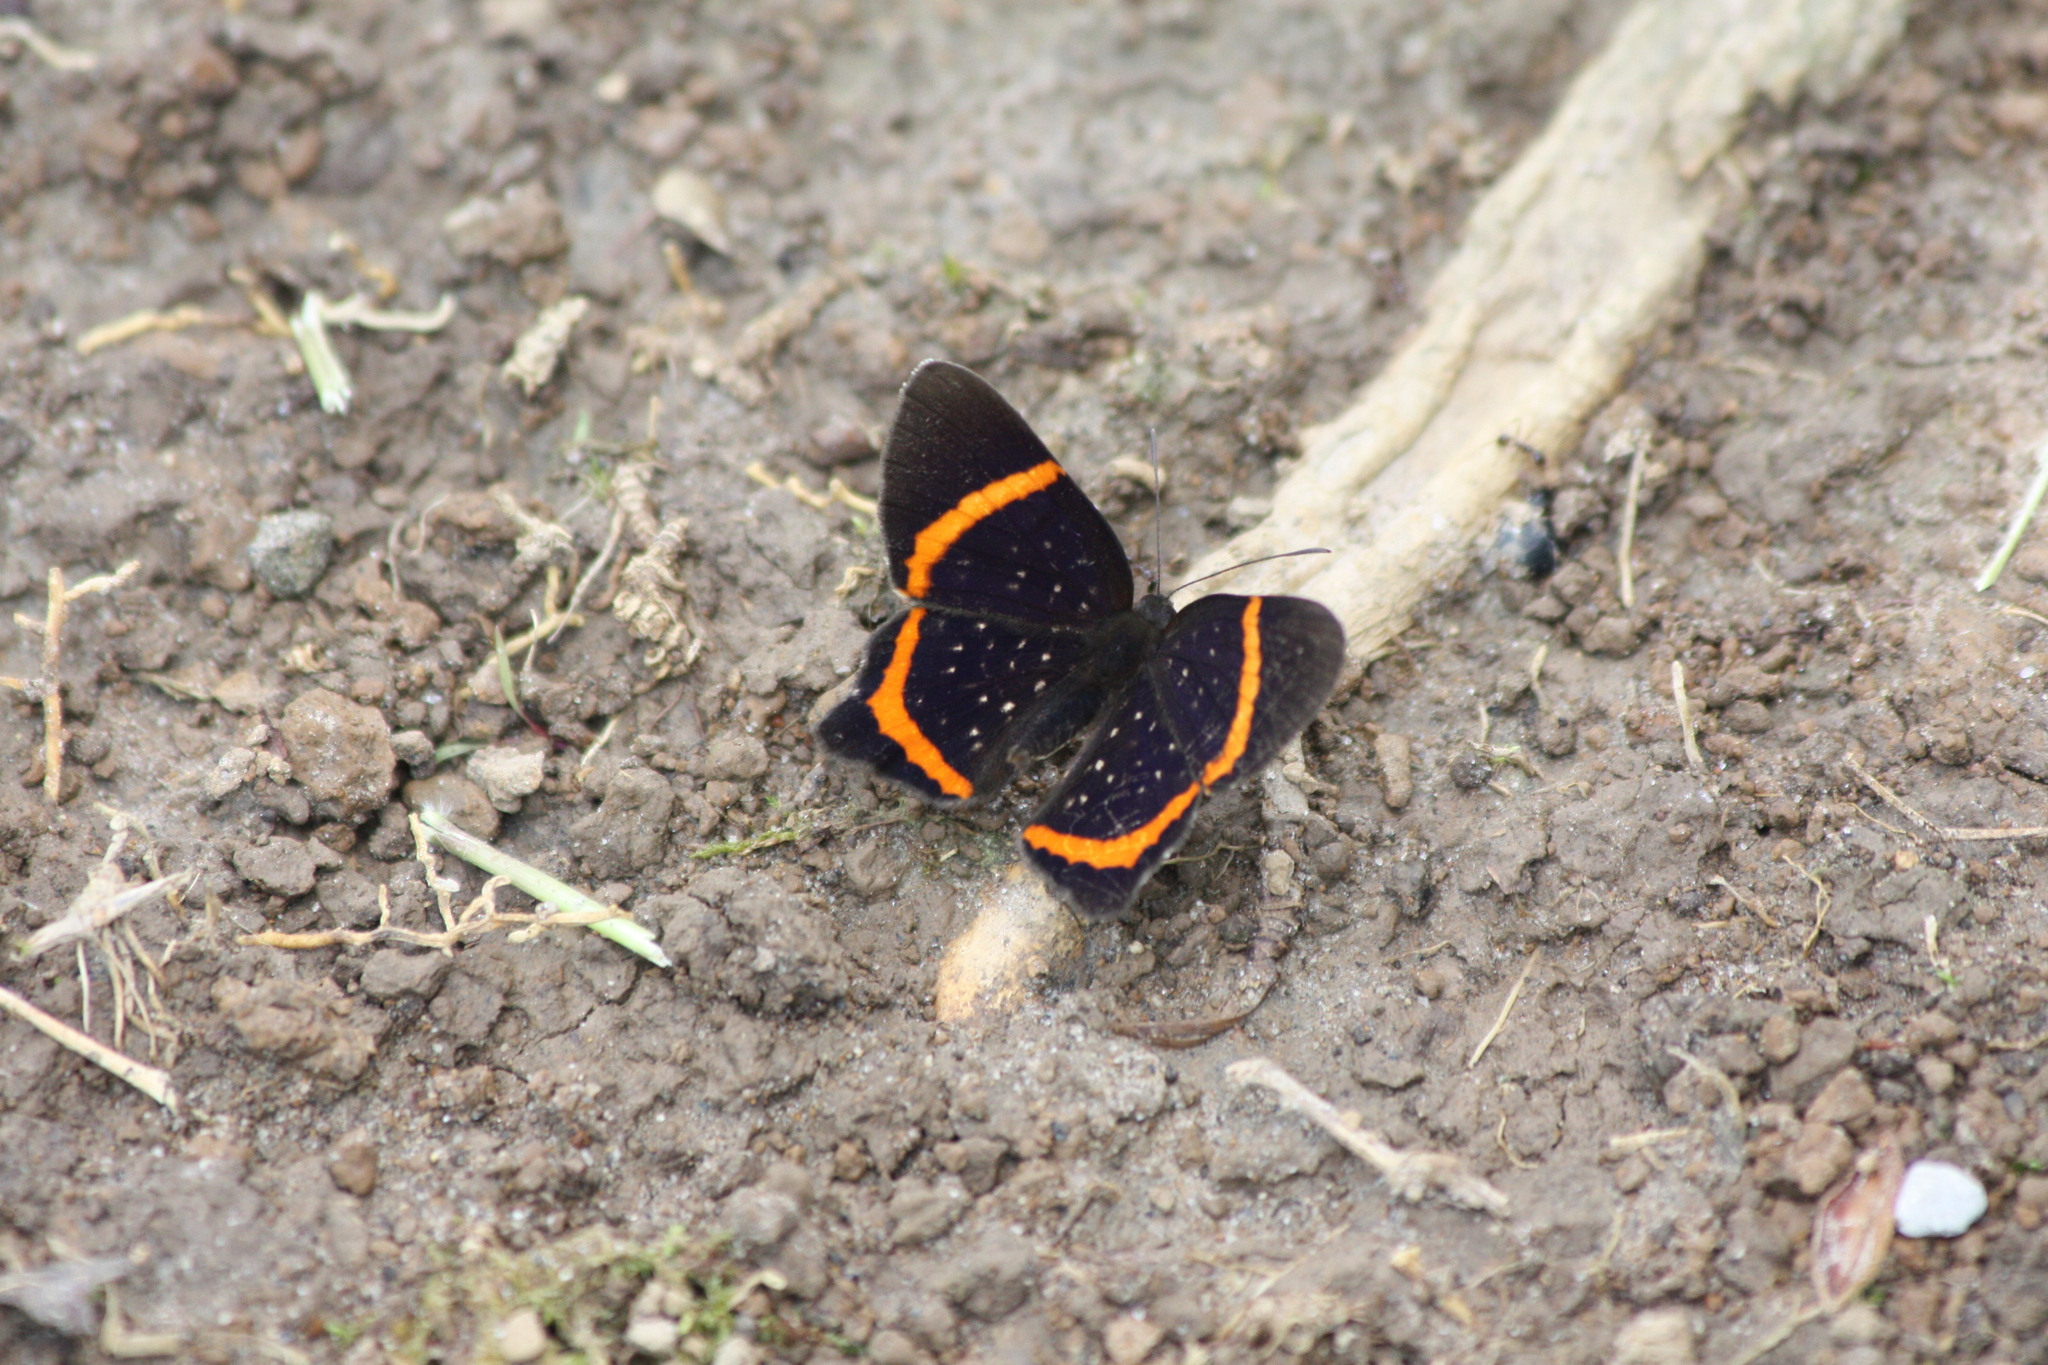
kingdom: Animalia
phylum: Arthropoda
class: Insecta
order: Lepidoptera
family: Riodinidae
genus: Riodina
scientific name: Riodina lysippus
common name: Lysippus metalmark
